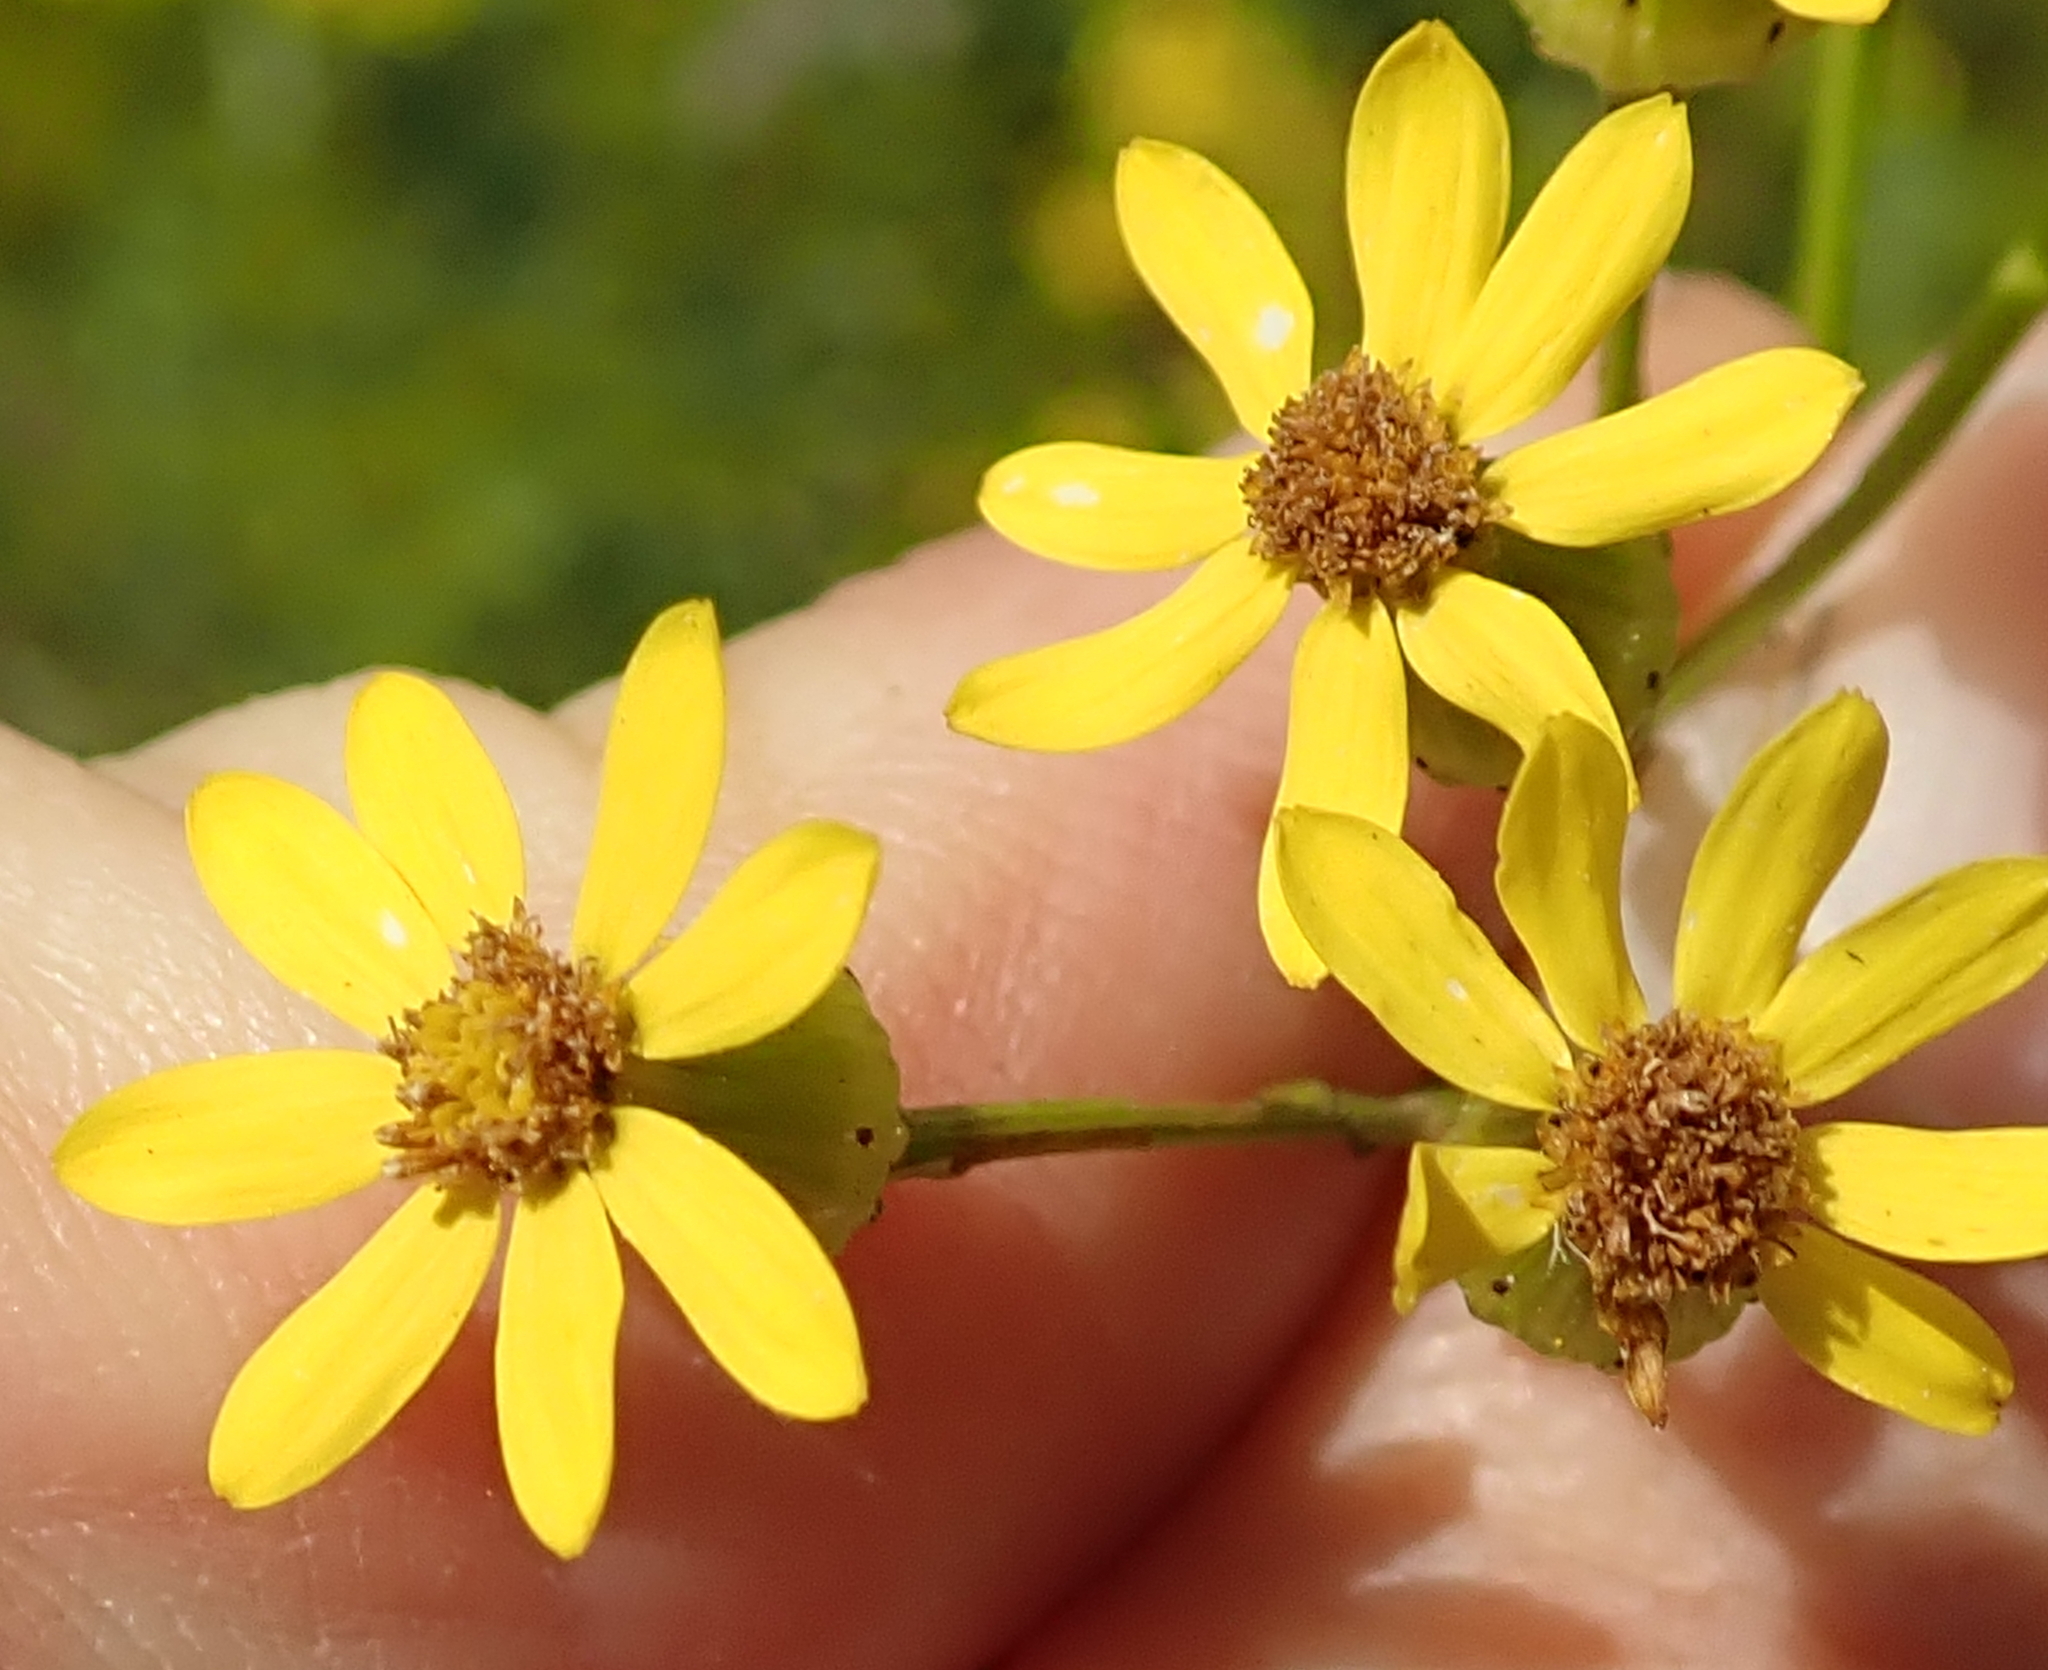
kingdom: Plantae
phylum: Tracheophyta
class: Magnoliopsida
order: Asterales
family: Asteraceae
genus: Senecio
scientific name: Senecio polyanthemoides
